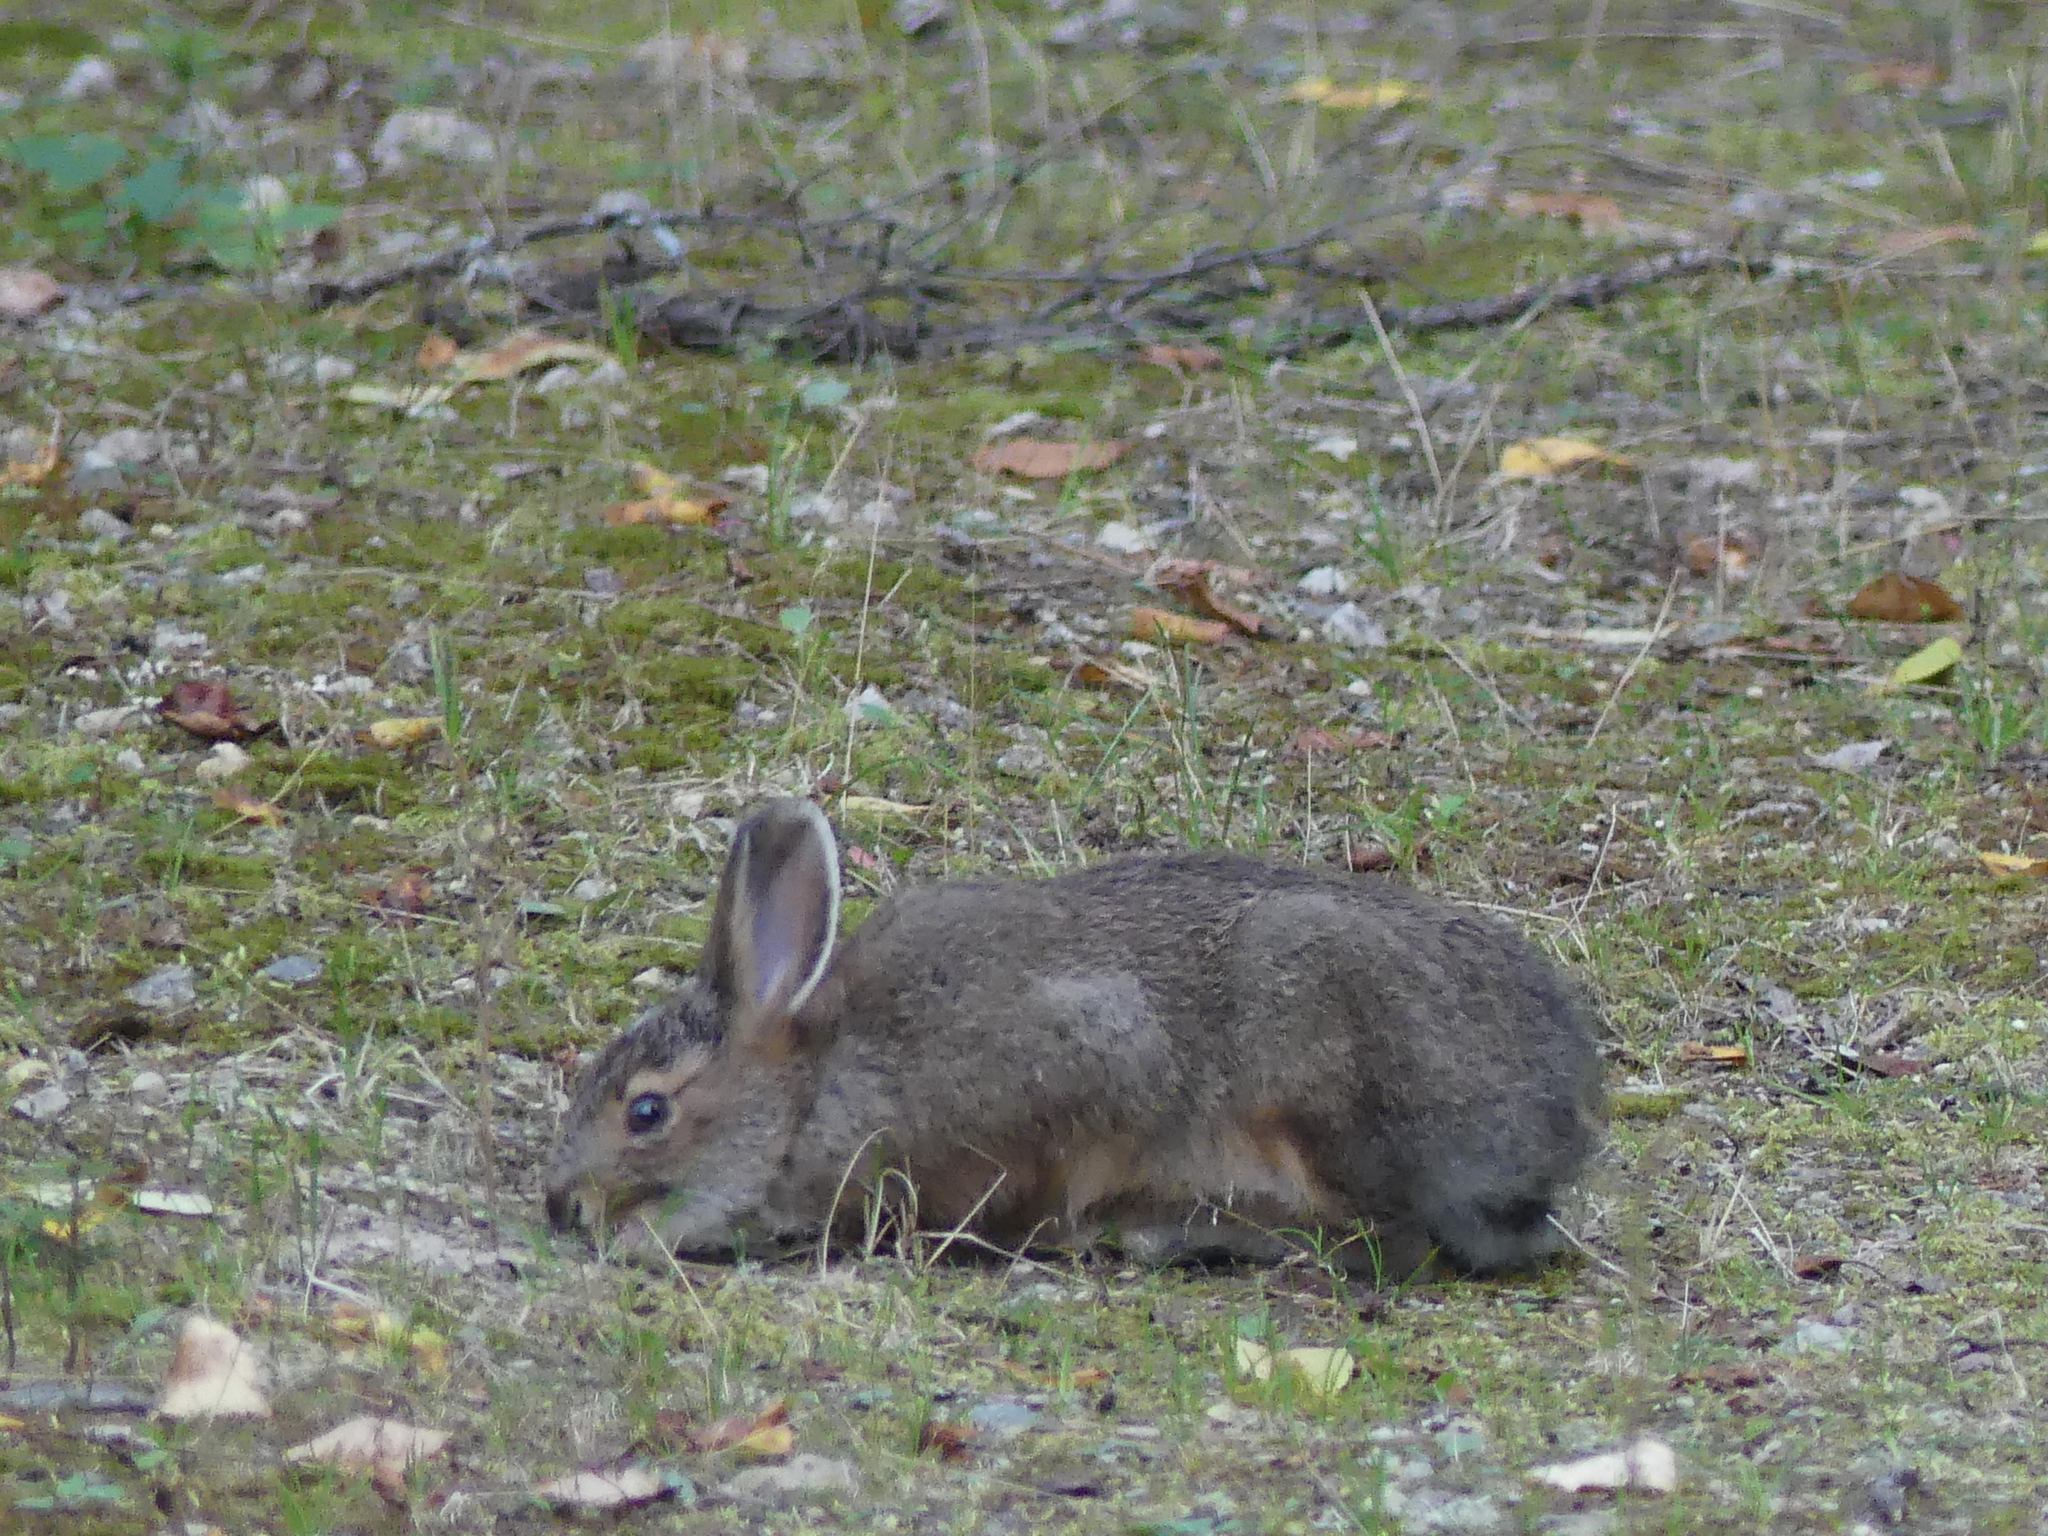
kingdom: Animalia
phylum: Chordata
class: Mammalia
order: Lagomorpha
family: Leporidae
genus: Lepus
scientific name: Lepus americanus
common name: Snowshoe hare
